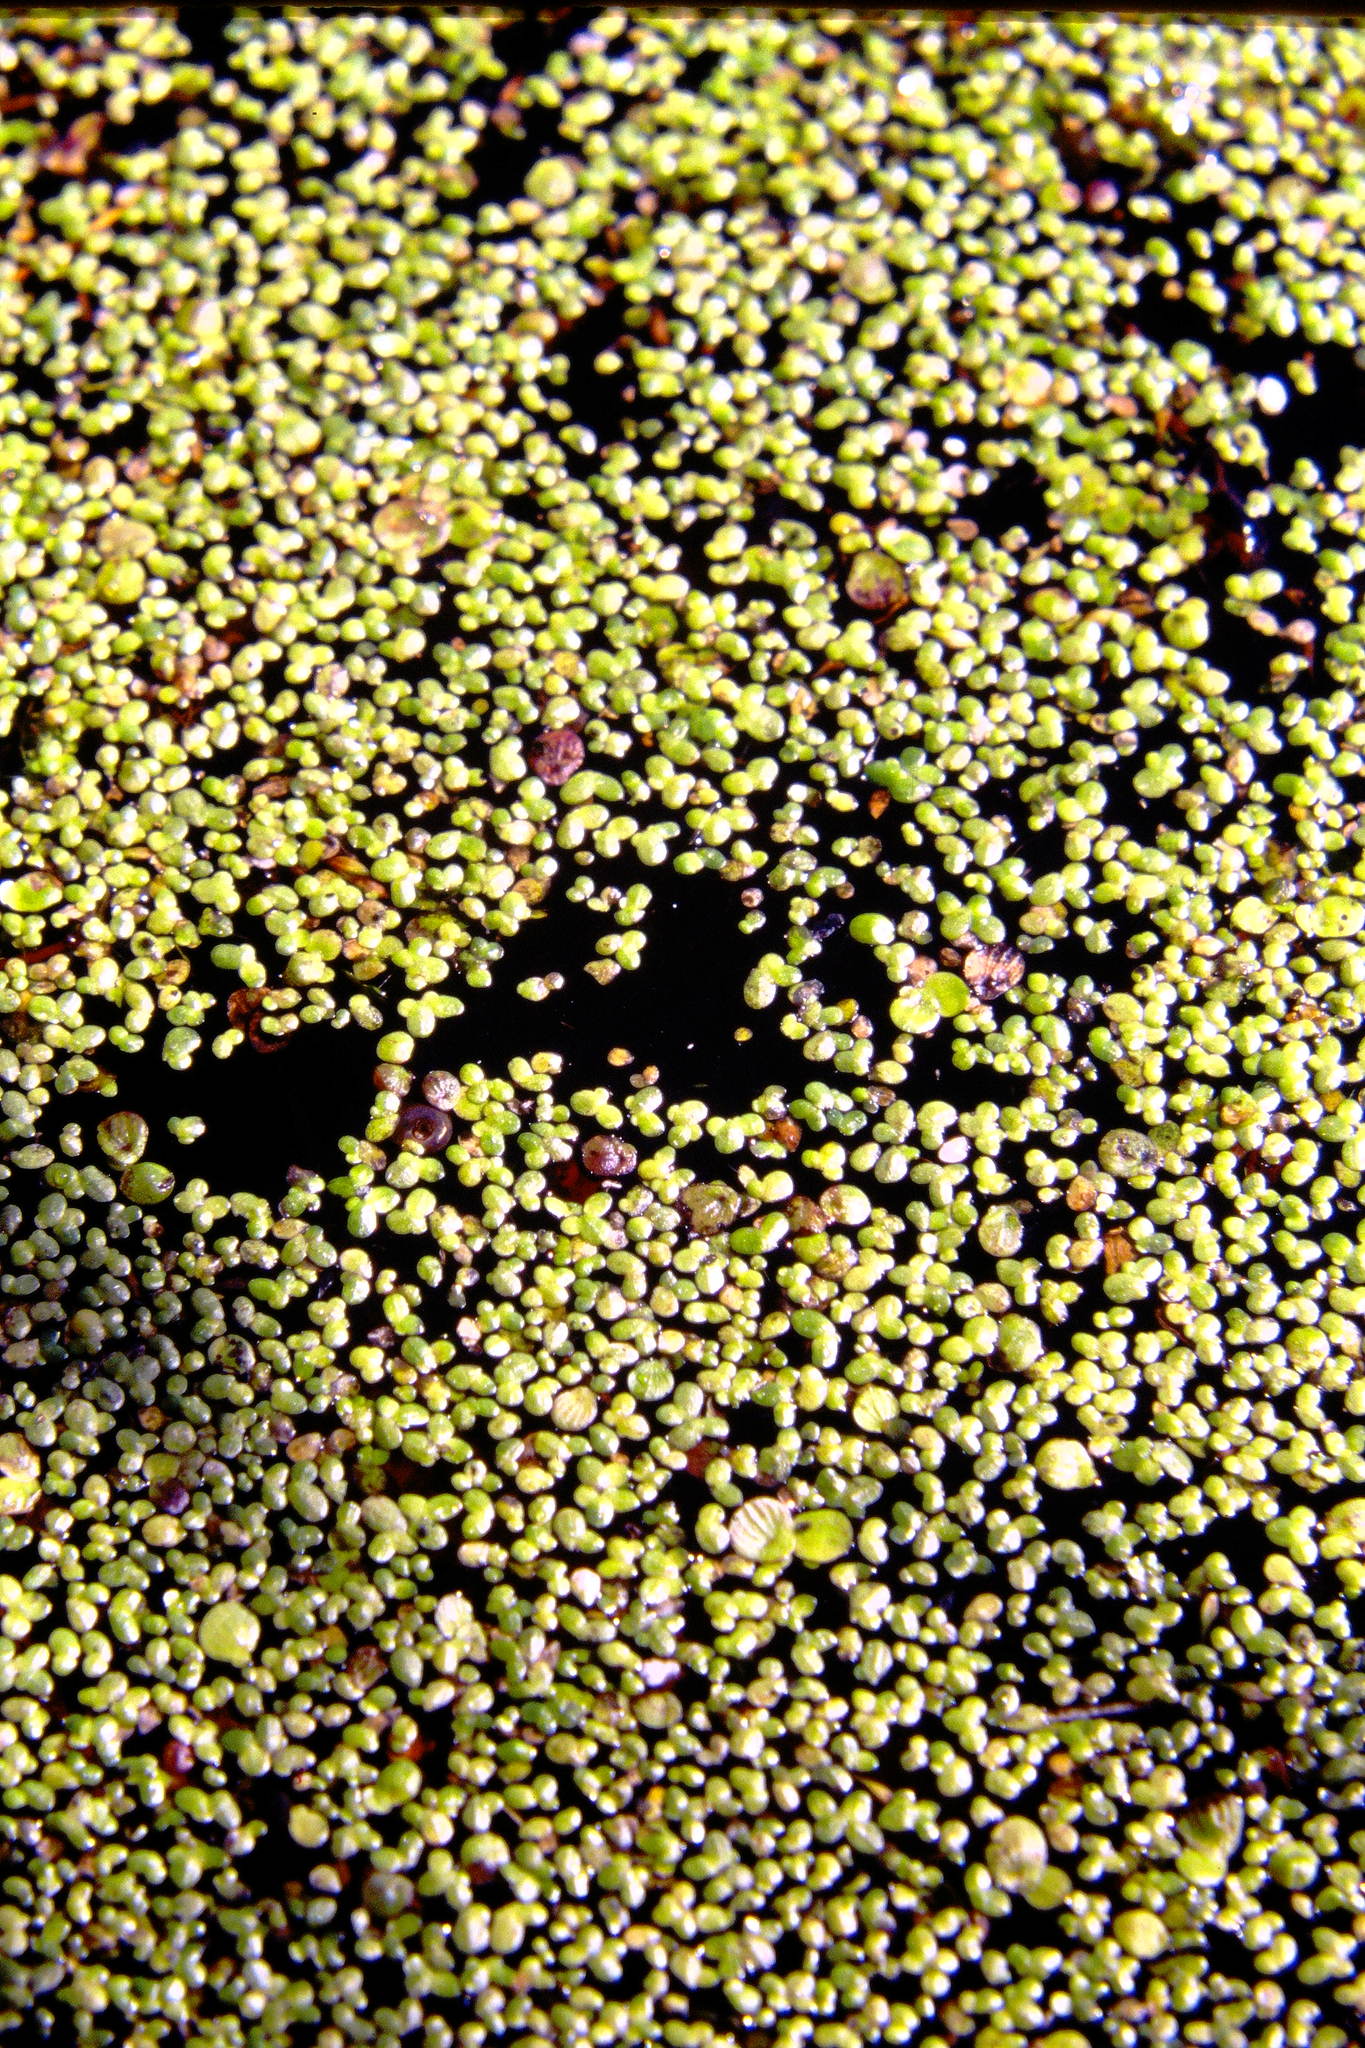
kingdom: Plantae
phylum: Tracheophyta
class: Liliopsida
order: Alismatales
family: Araceae
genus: Lemna
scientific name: Lemna minor
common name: Common duckweed
